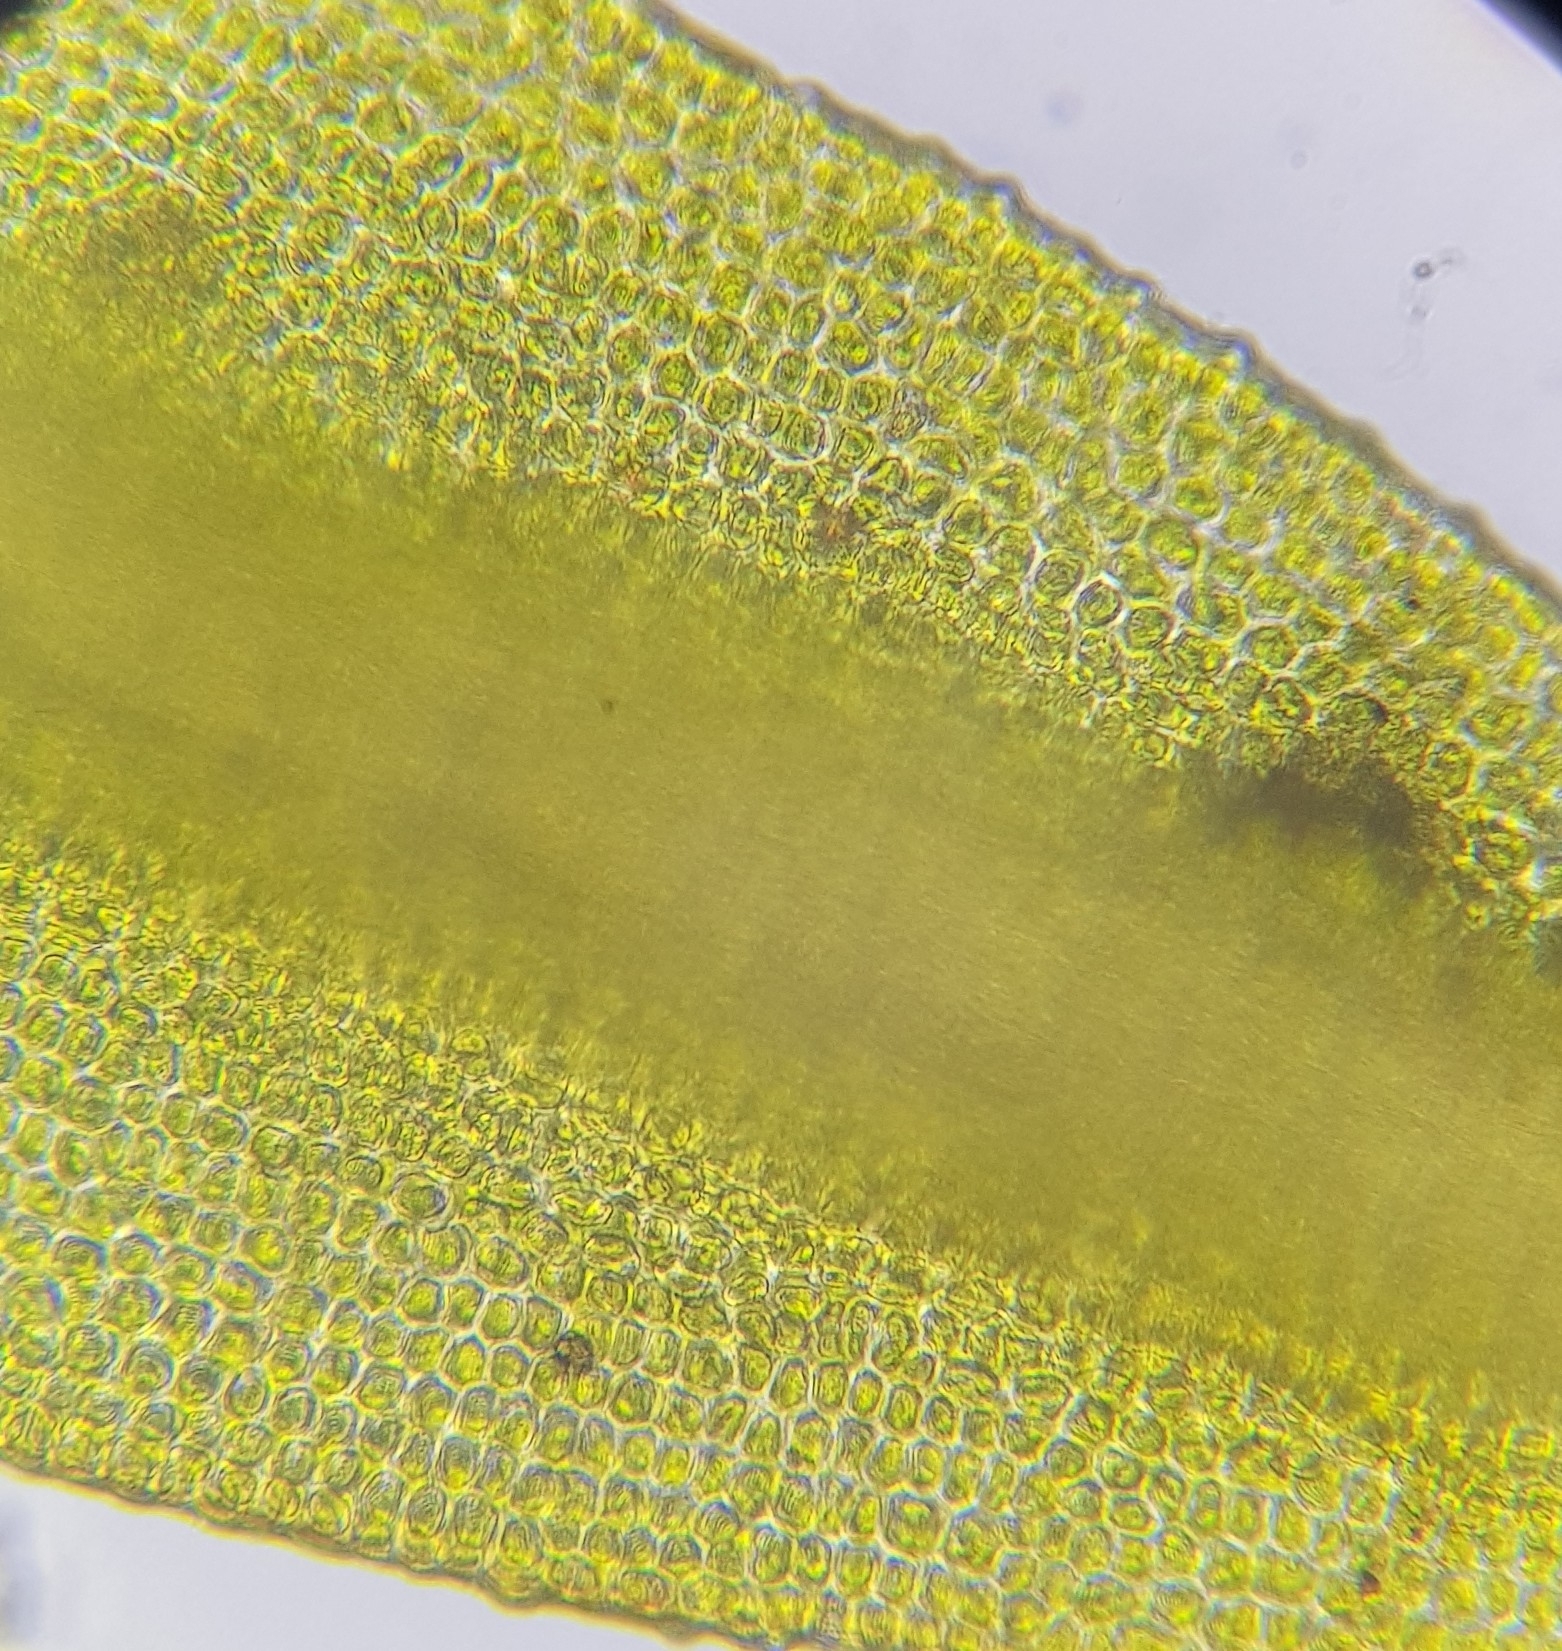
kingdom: Plantae
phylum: Bryophyta
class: Bryopsida
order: Grimmiales
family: Grimmiaceae
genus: Schistidium
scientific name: Schistidium maritimum
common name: Seaside bloom moss
